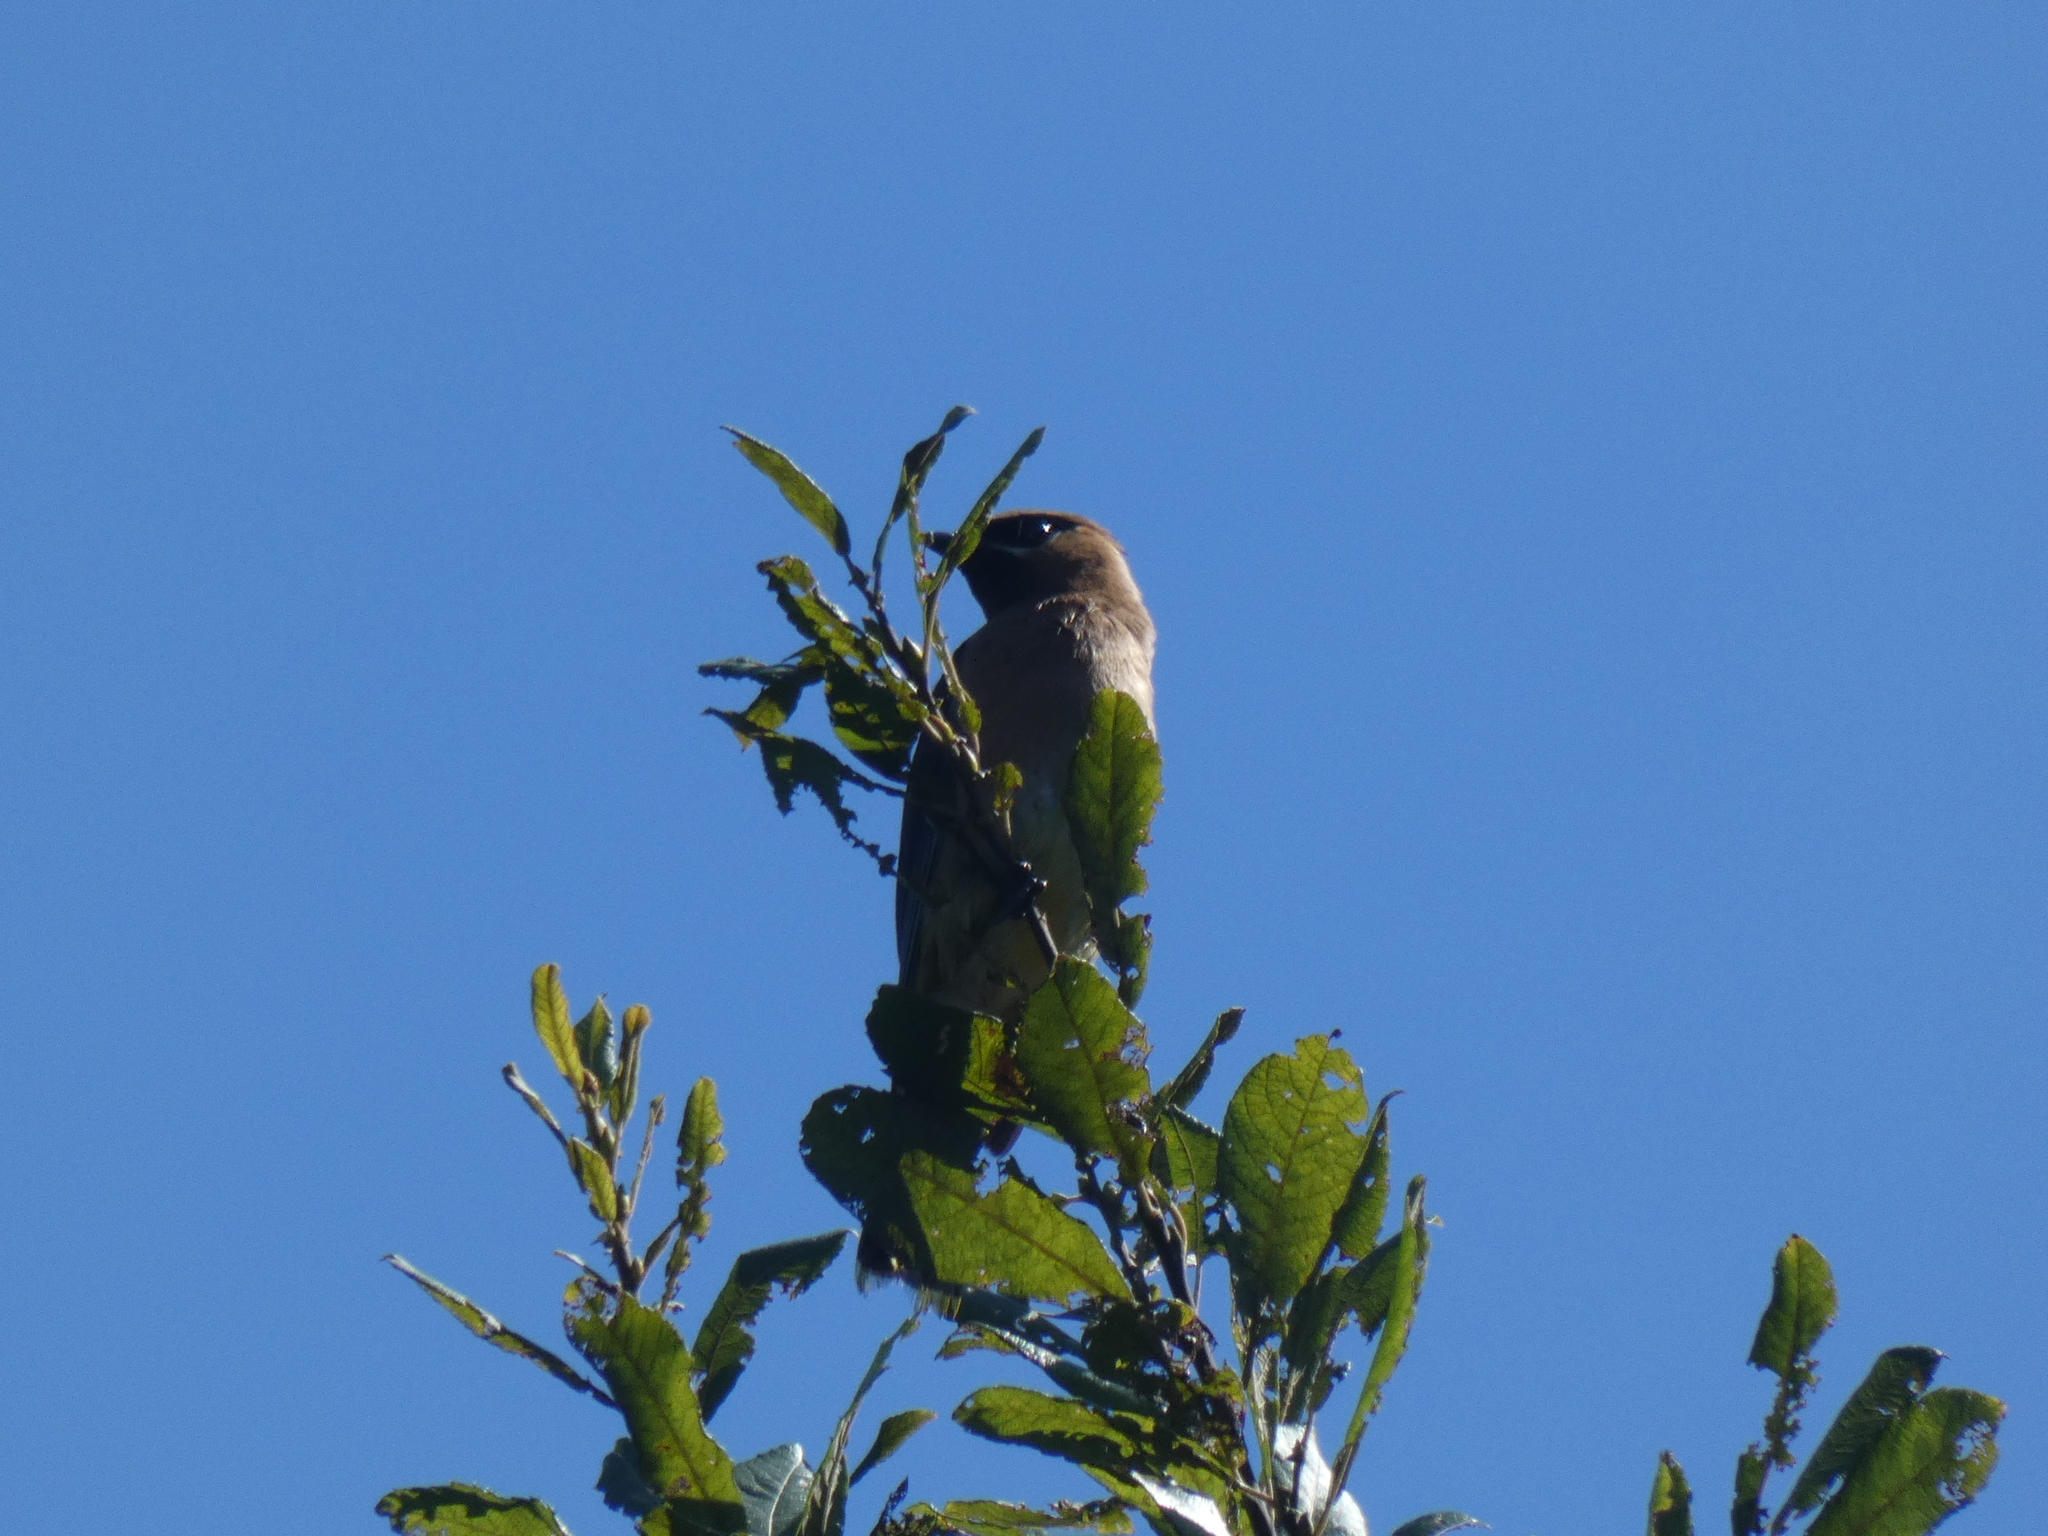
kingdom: Animalia
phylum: Chordata
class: Aves
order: Passeriformes
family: Bombycillidae
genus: Bombycilla
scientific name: Bombycilla cedrorum
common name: Cedar waxwing
